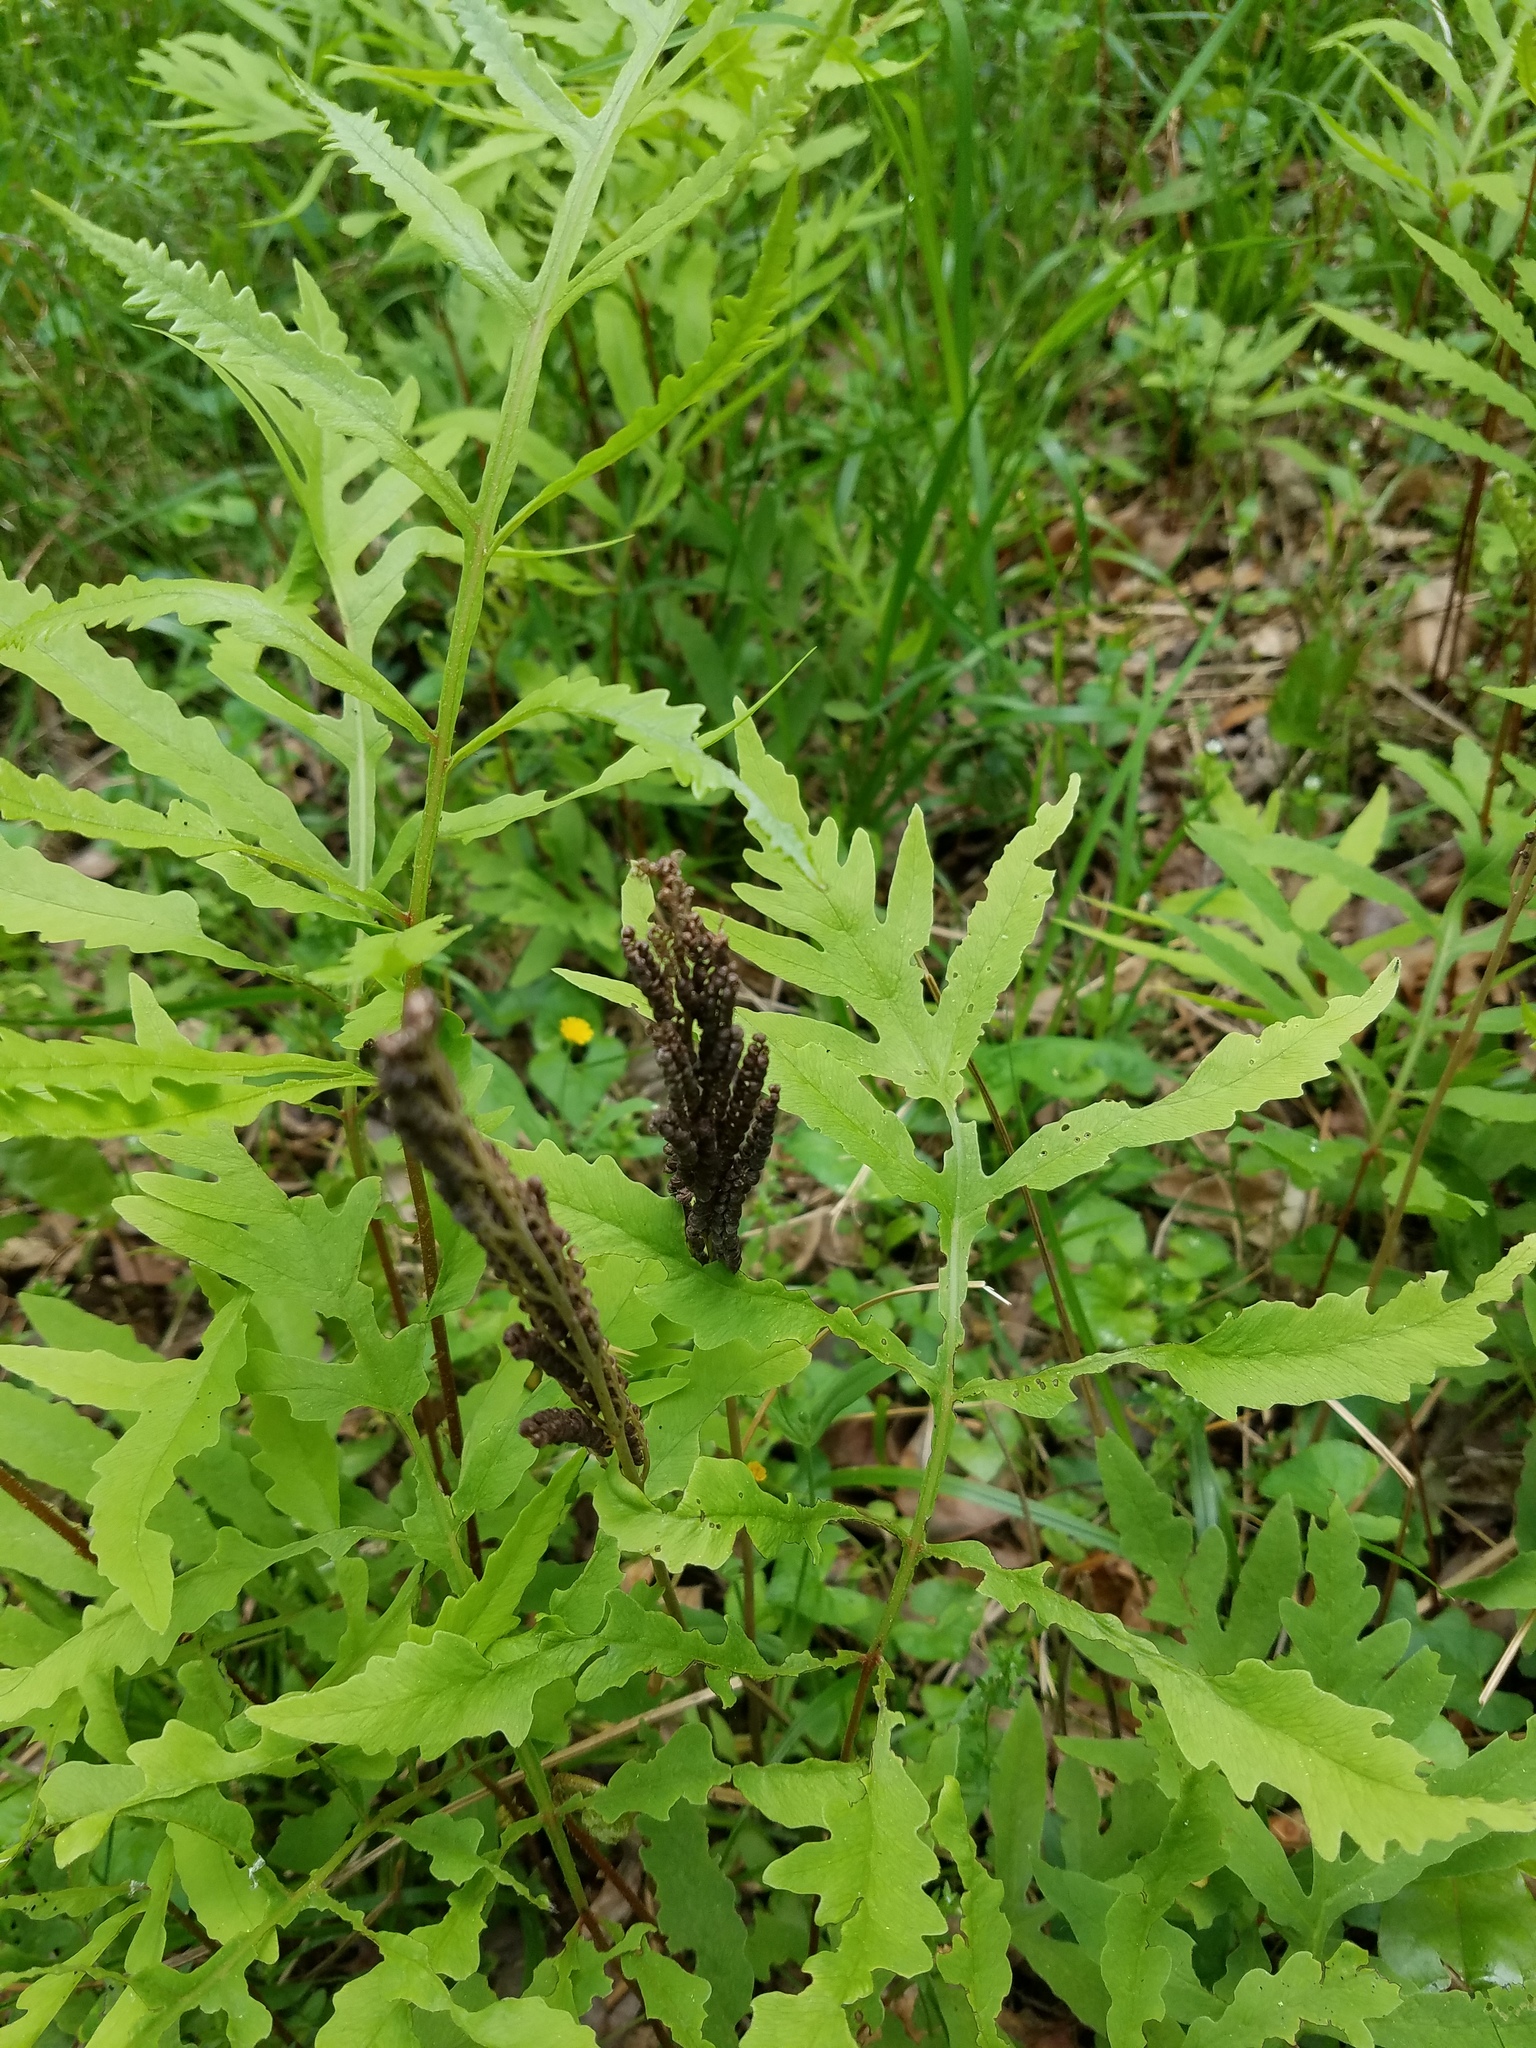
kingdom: Plantae
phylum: Tracheophyta
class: Polypodiopsida
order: Polypodiales
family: Onocleaceae
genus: Onoclea
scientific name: Onoclea sensibilis
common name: Sensitive fern
